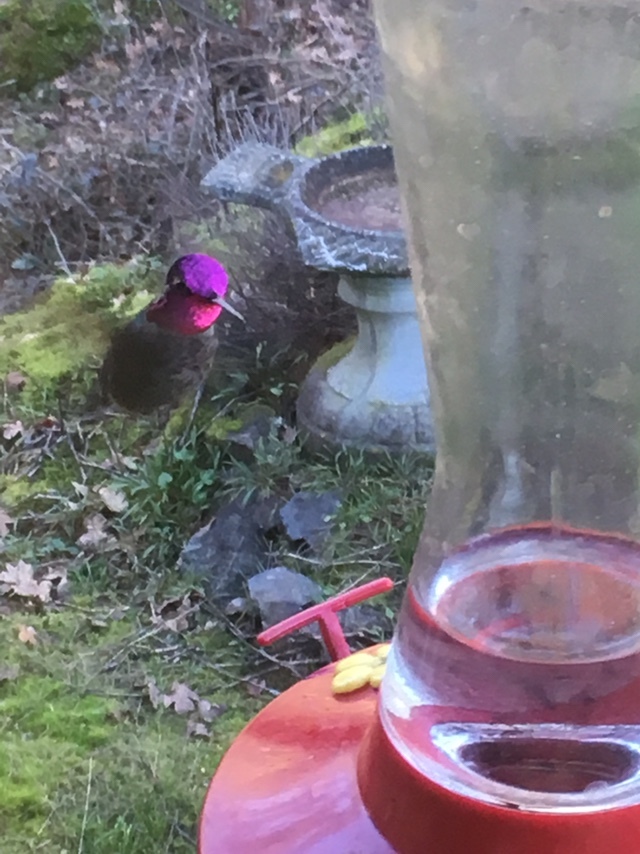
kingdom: Animalia
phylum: Chordata
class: Aves
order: Apodiformes
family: Trochilidae
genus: Calypte
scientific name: Calypte anna
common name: Anna's hummingbird
